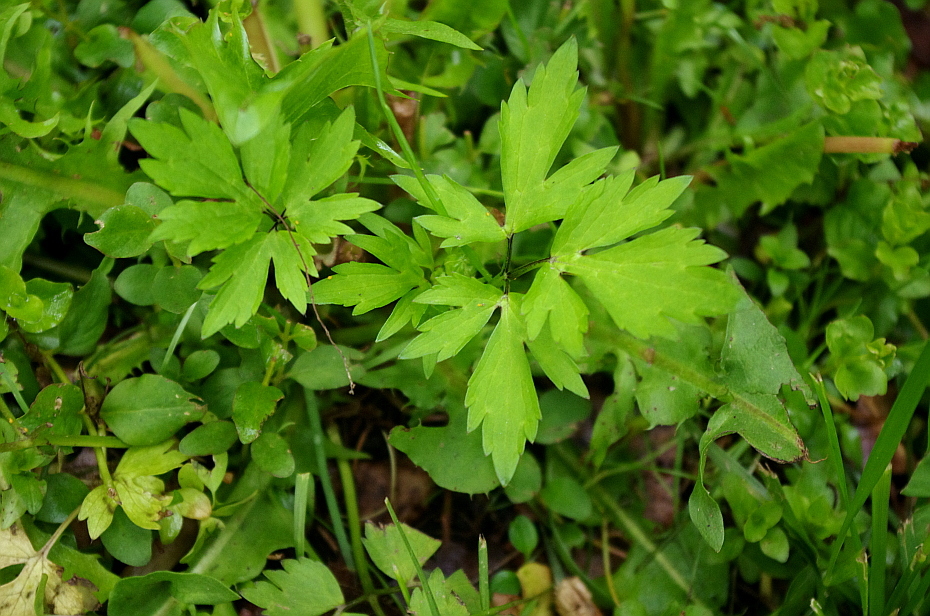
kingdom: Plantae
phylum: Tracheophyta
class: Magnoliopsida
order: Ranunculales
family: Ranunculaceae
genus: Ranunculus
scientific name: Ranunculus repens
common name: Creeping buttercup
